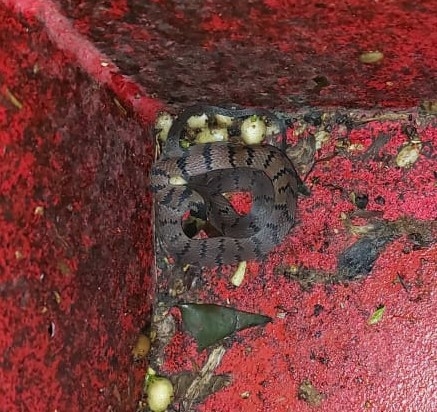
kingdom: Animalia
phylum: Chordata
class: Squamata
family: Colubridae
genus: Ninia
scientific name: Ninia maculata
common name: Spotted coffee snake
